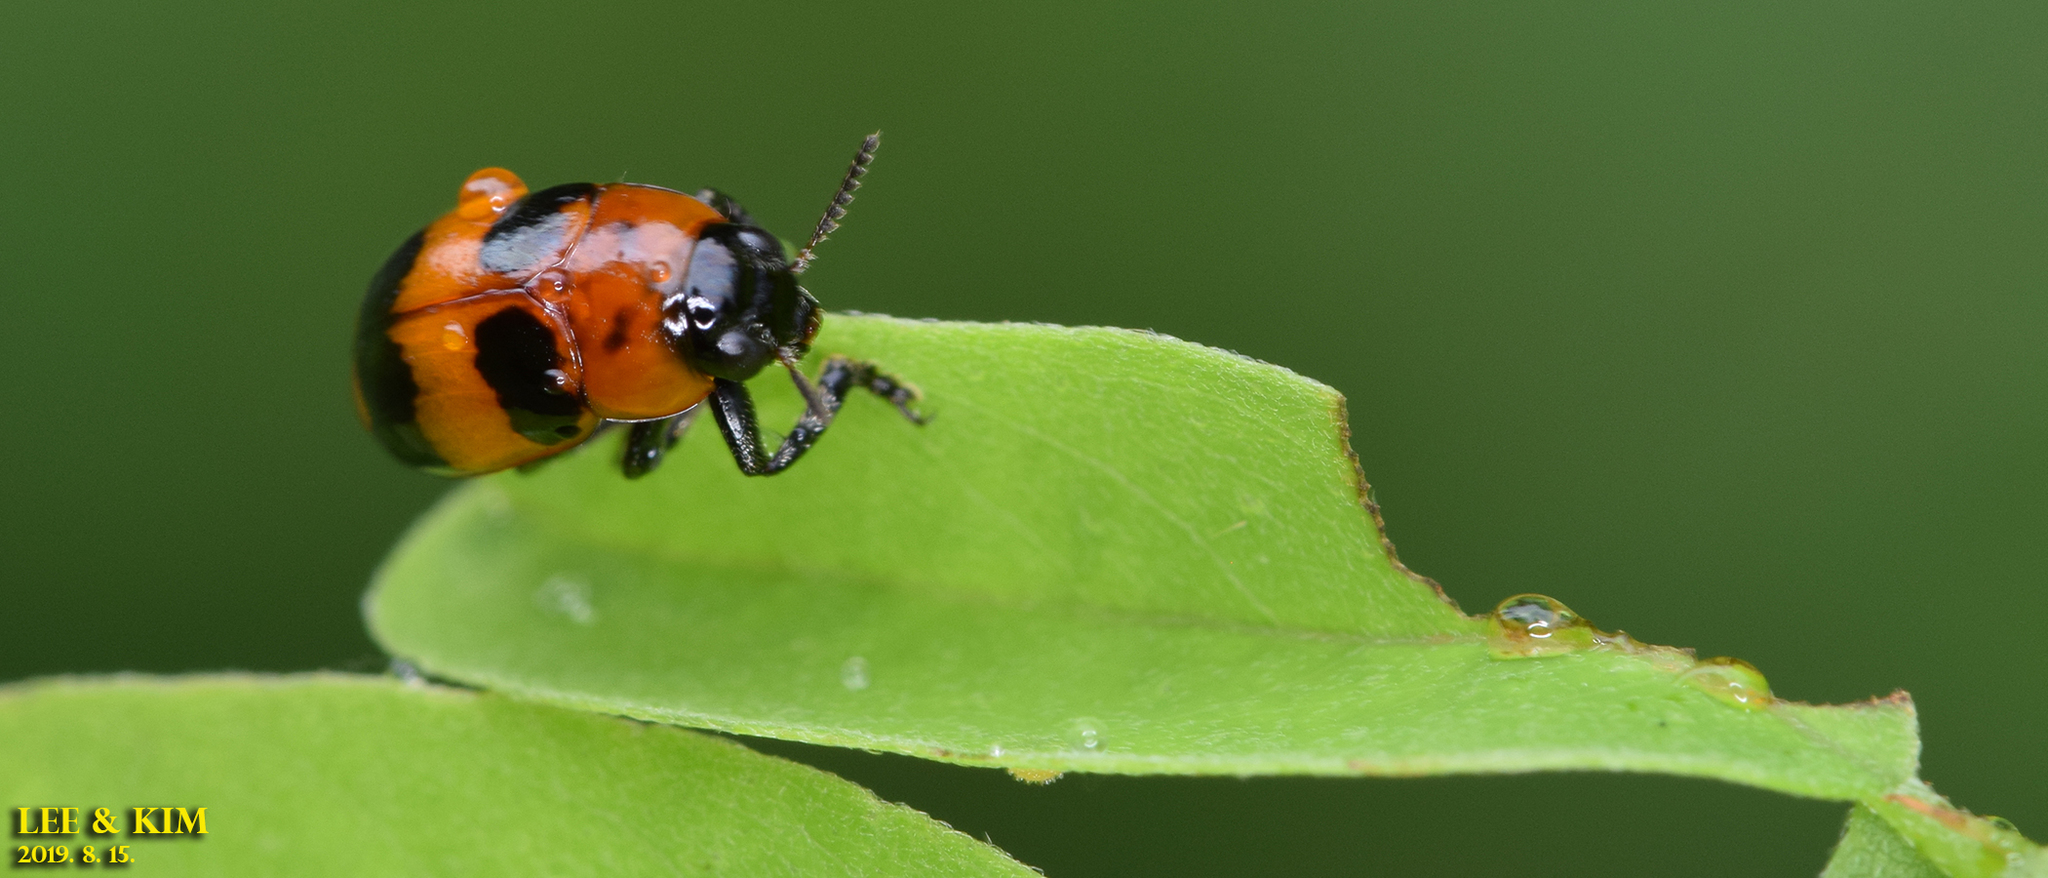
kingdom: Animalia
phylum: Arthropoda
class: Insecta
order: Coleoptera
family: Chrysomelidae
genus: Physosmaragdina
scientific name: Physosmaragdina nigrifrons
